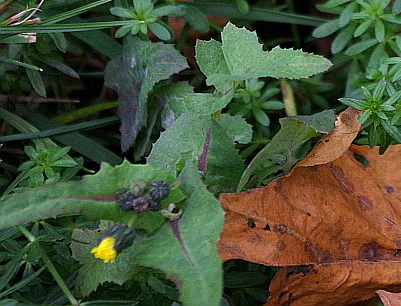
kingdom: Plantae
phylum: Tracheophyta
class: Magnoliopsida
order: Asterales
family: Asteraceae
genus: Sonchus
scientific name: Sonchus oleraceus
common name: Common sowthistle
